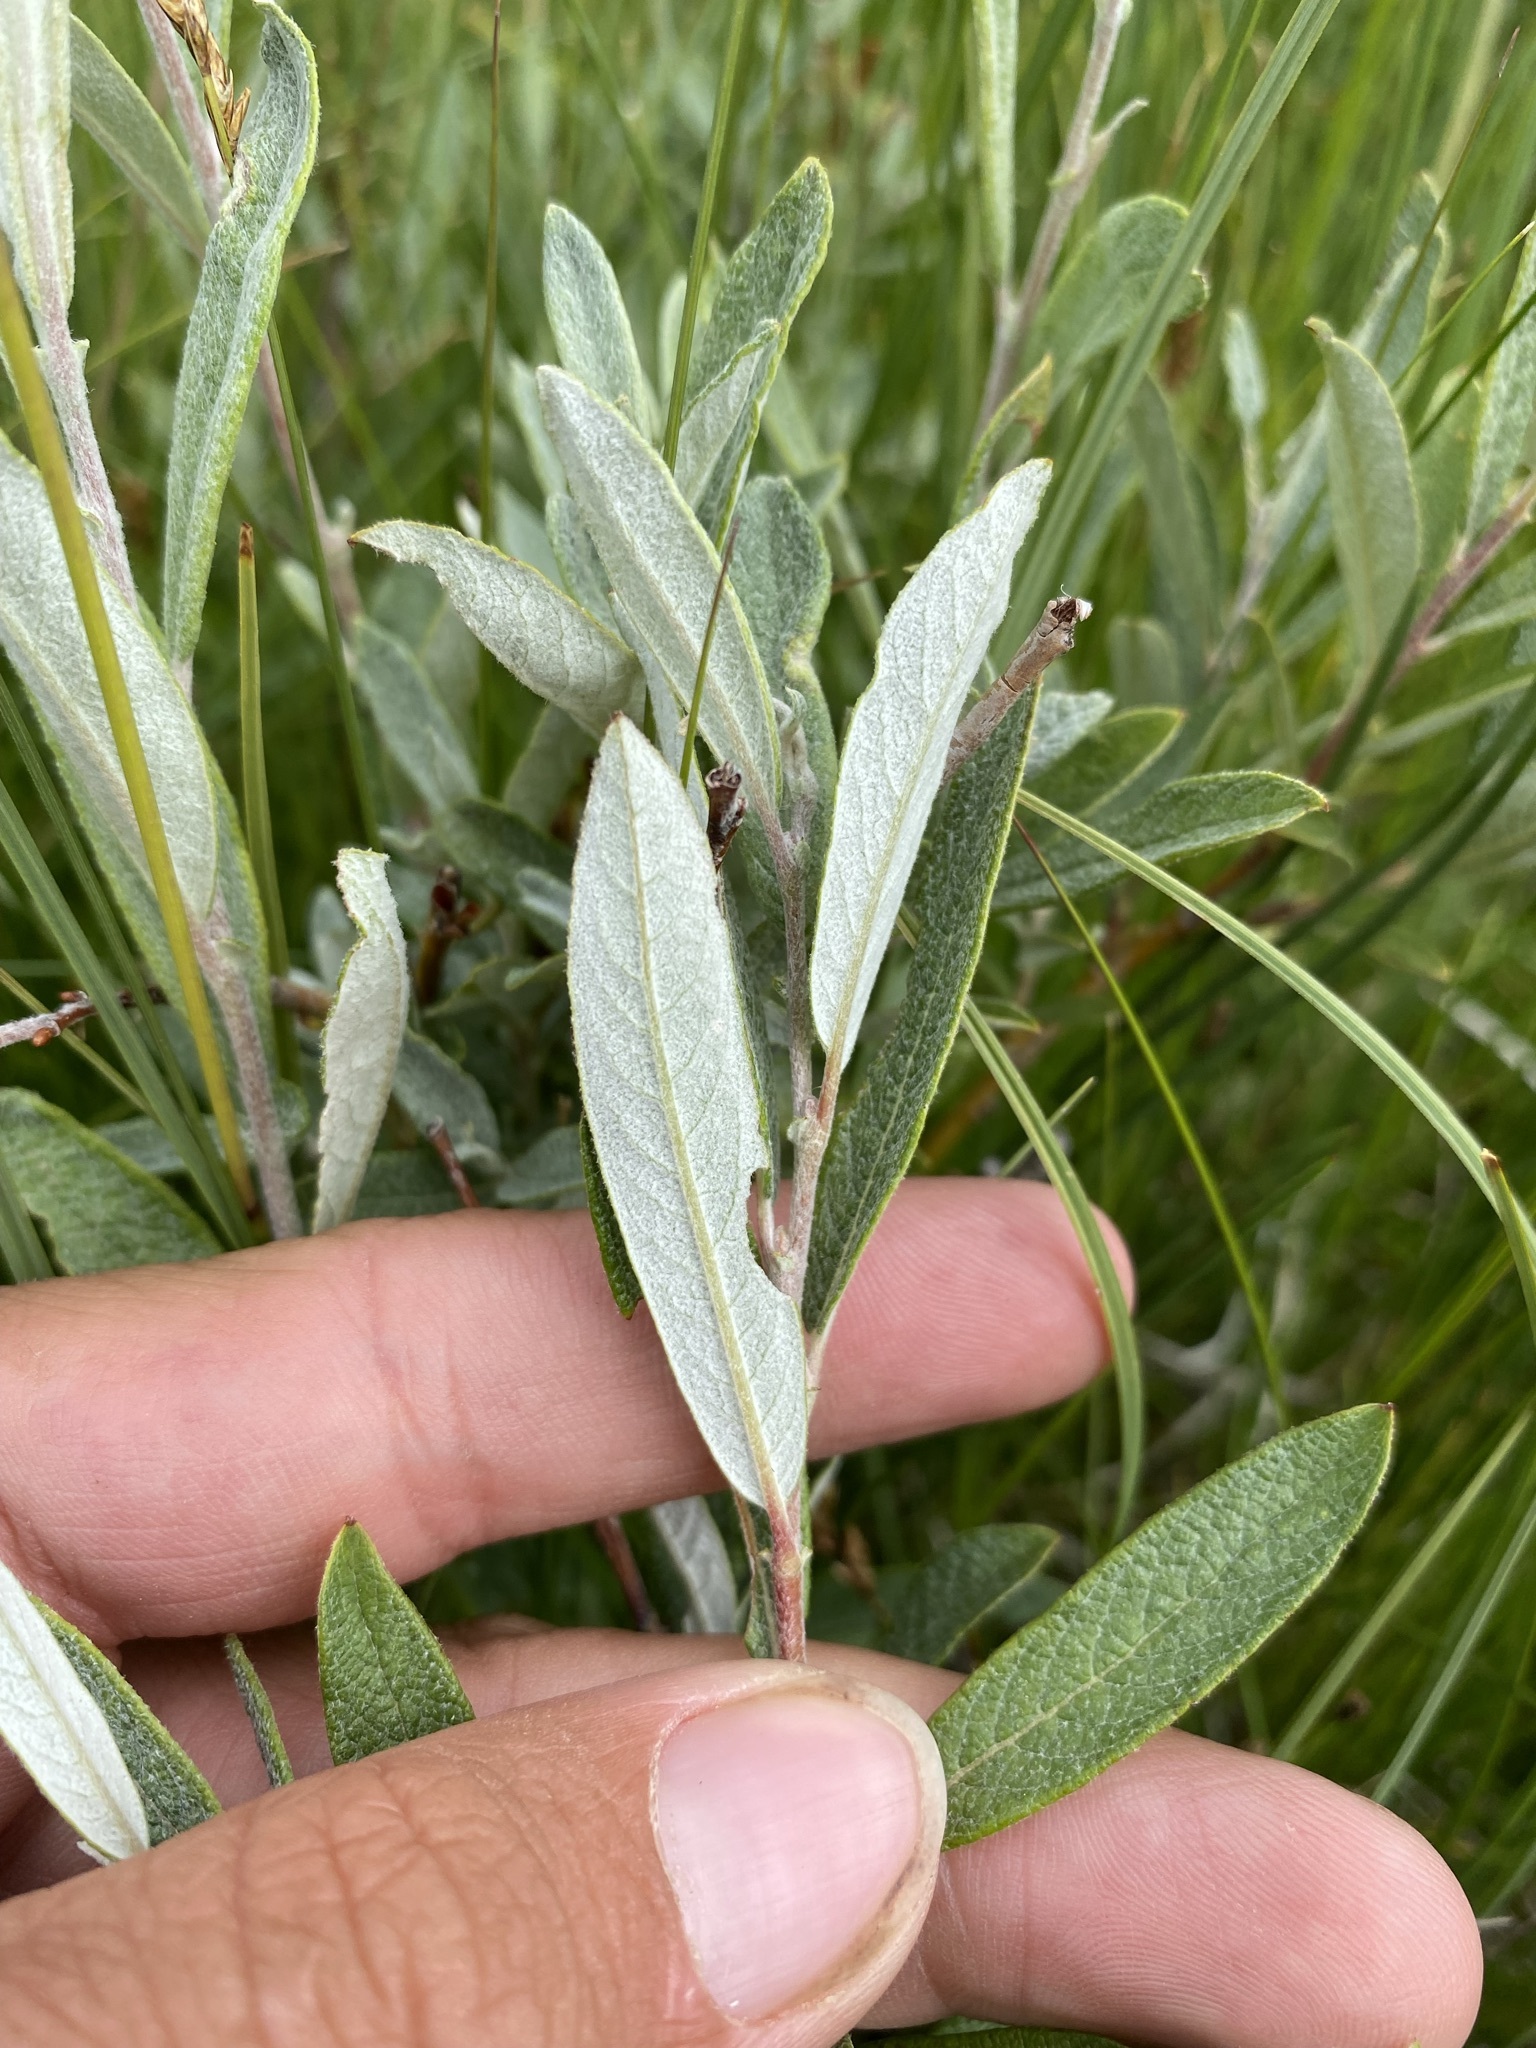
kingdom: Plantae
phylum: Tracheophyta
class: Magnoliopsida
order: Malpighiales
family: Salicaceae
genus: Salix
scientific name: Salix candida
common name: Hoary willow
